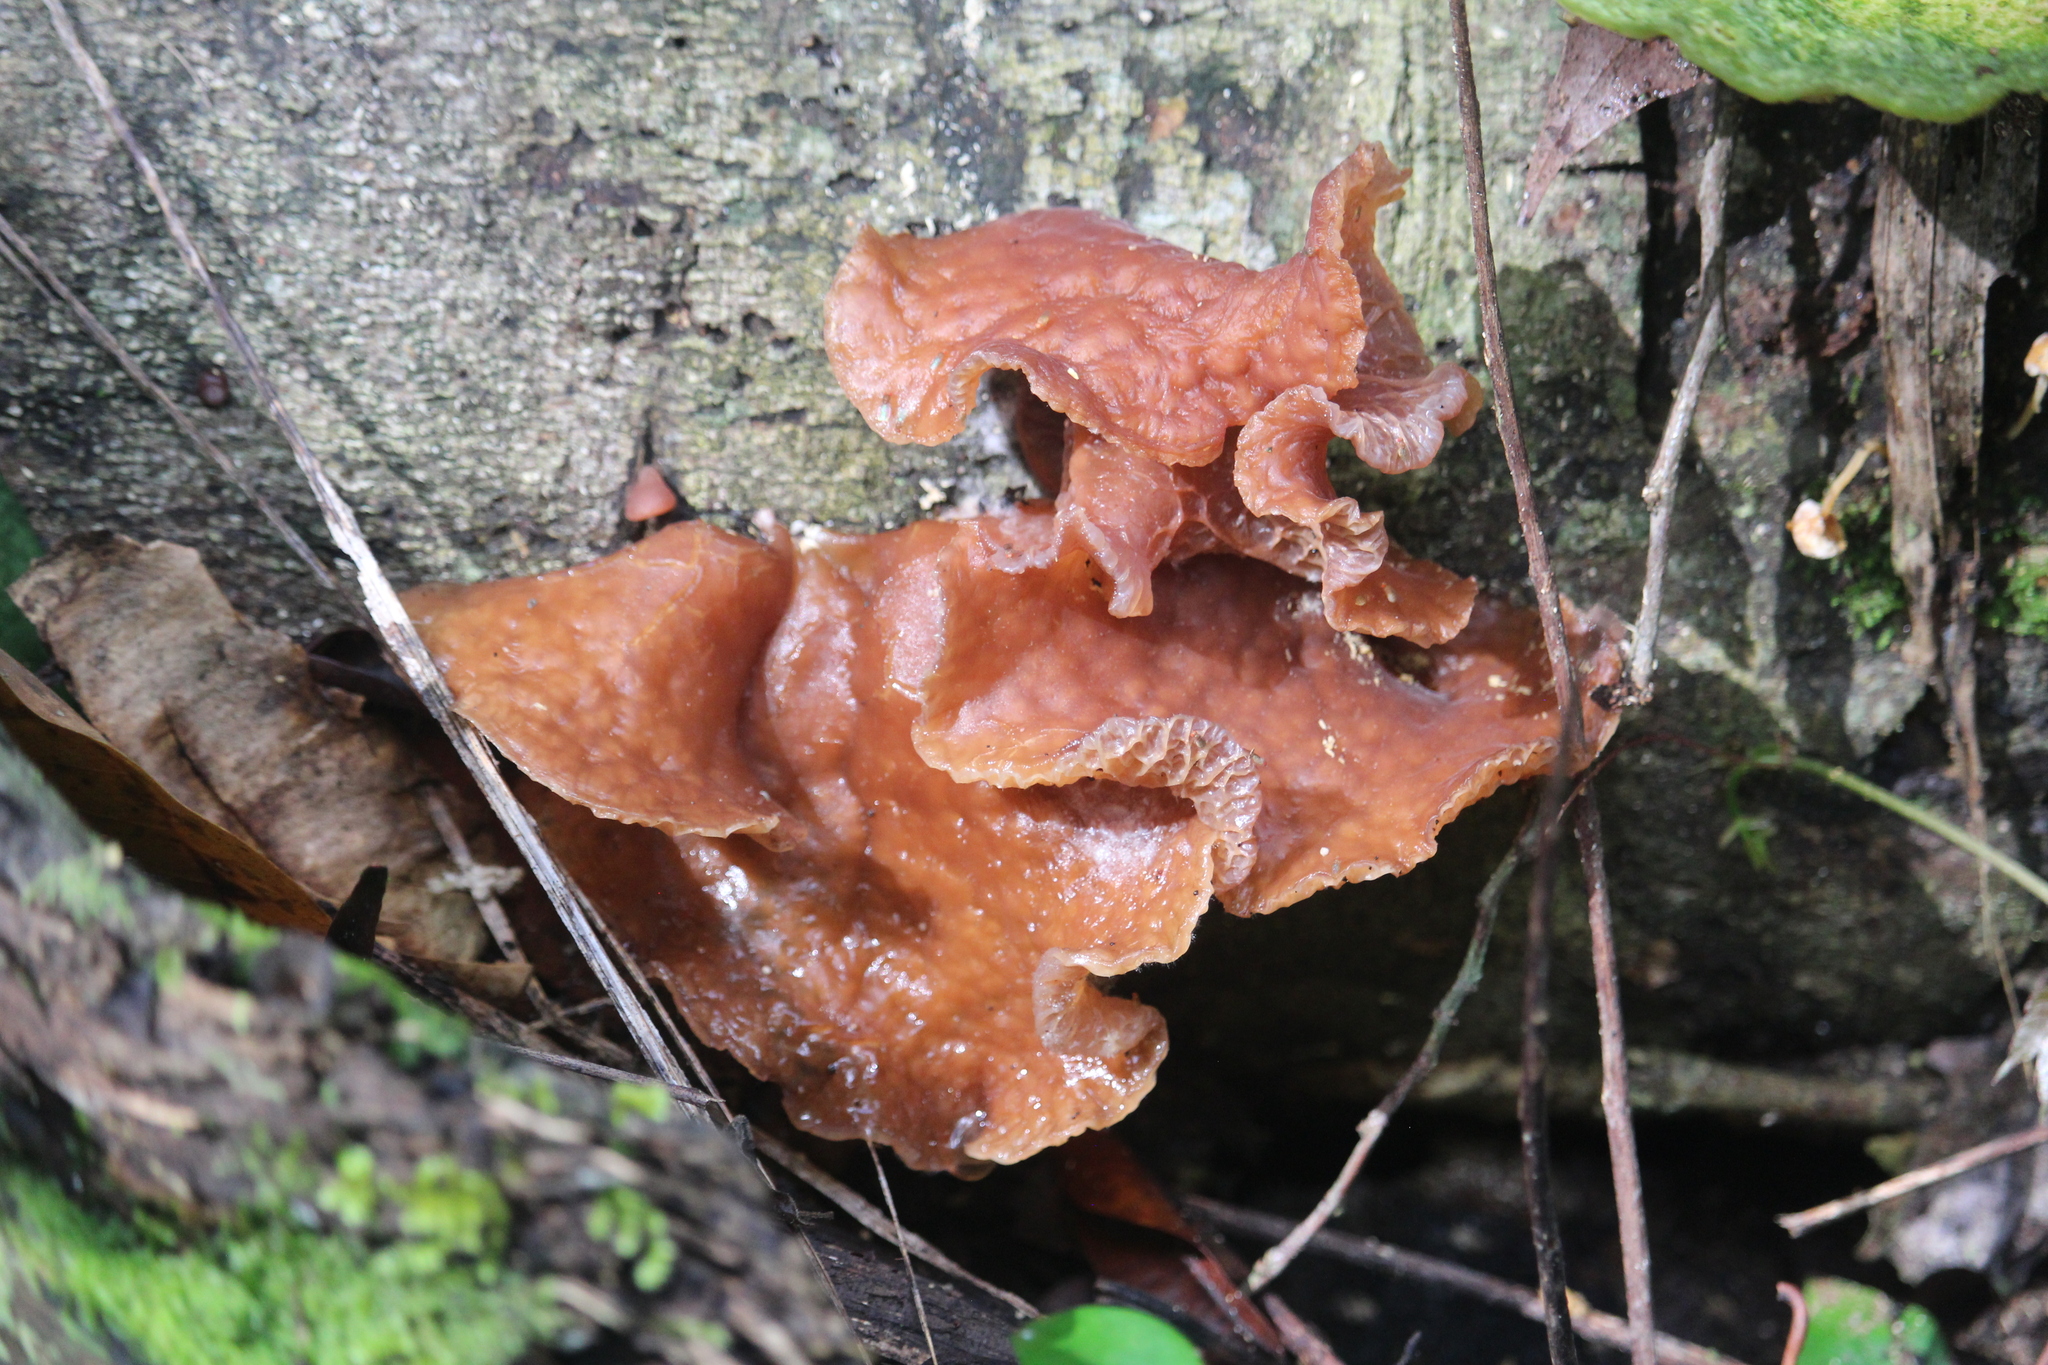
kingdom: Fungi
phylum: Basidiomycota
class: Agaricomycetes
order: Auriculariales
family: Auriculariaceae
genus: Auricularia
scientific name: Auricularia auricula-judae
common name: Jelly ear
